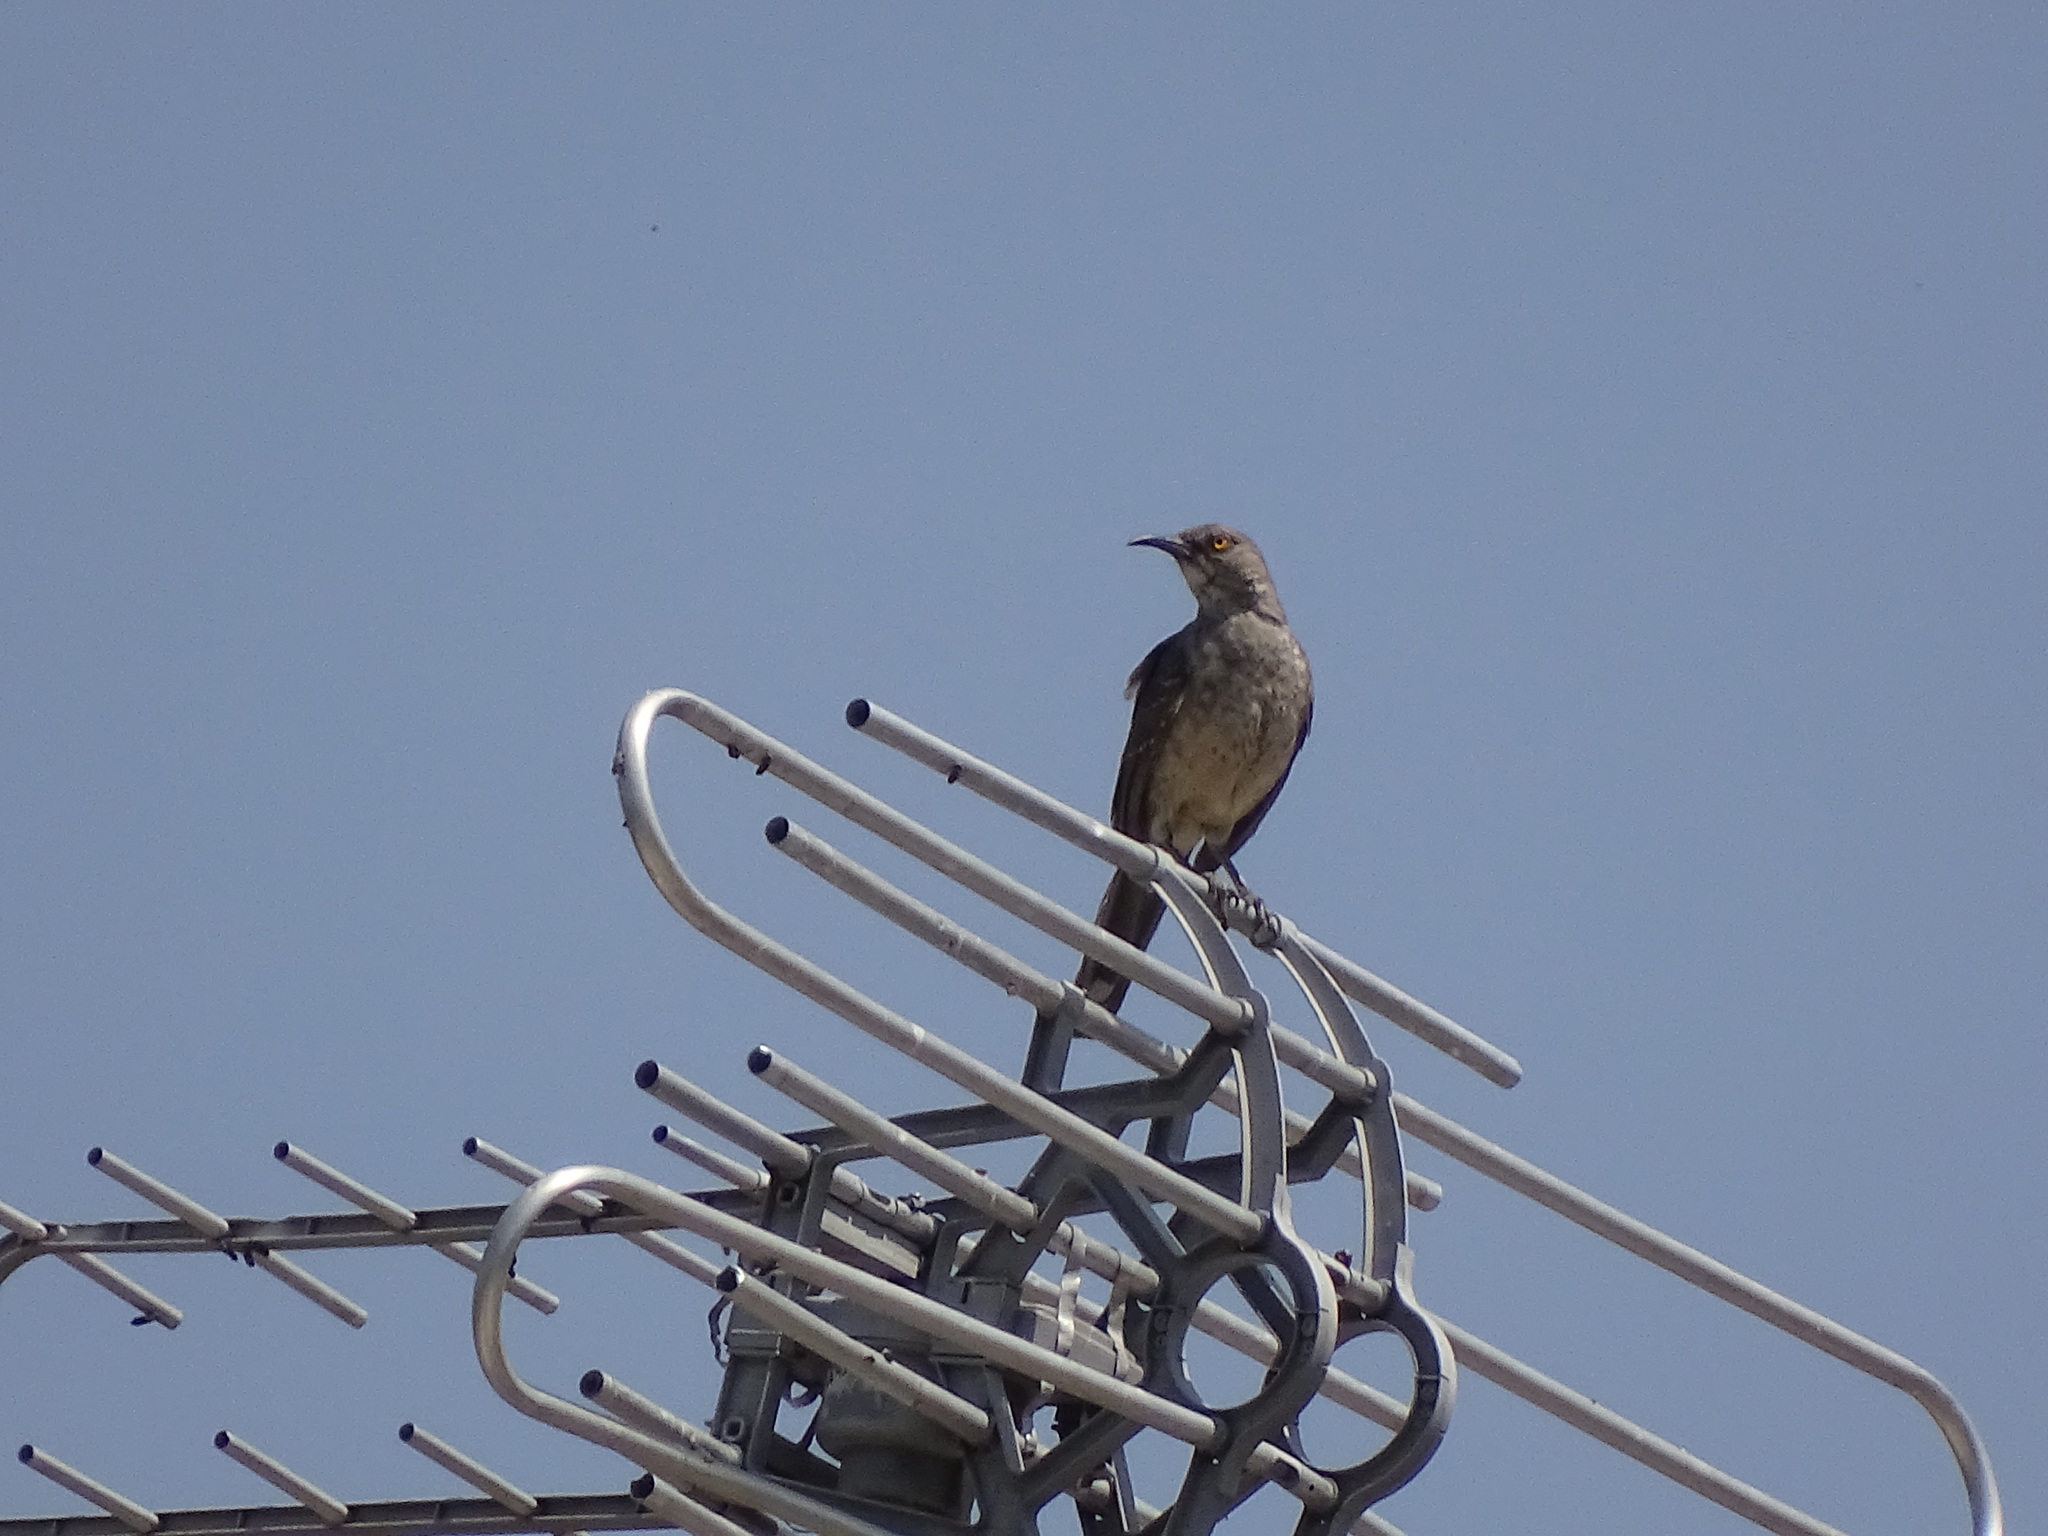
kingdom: Animalia
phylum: Chordata
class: Aves
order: Passeriformes
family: Mimidae
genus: Toxostoma
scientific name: Toxostoma curvirostre
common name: Curve-billed thrasher
